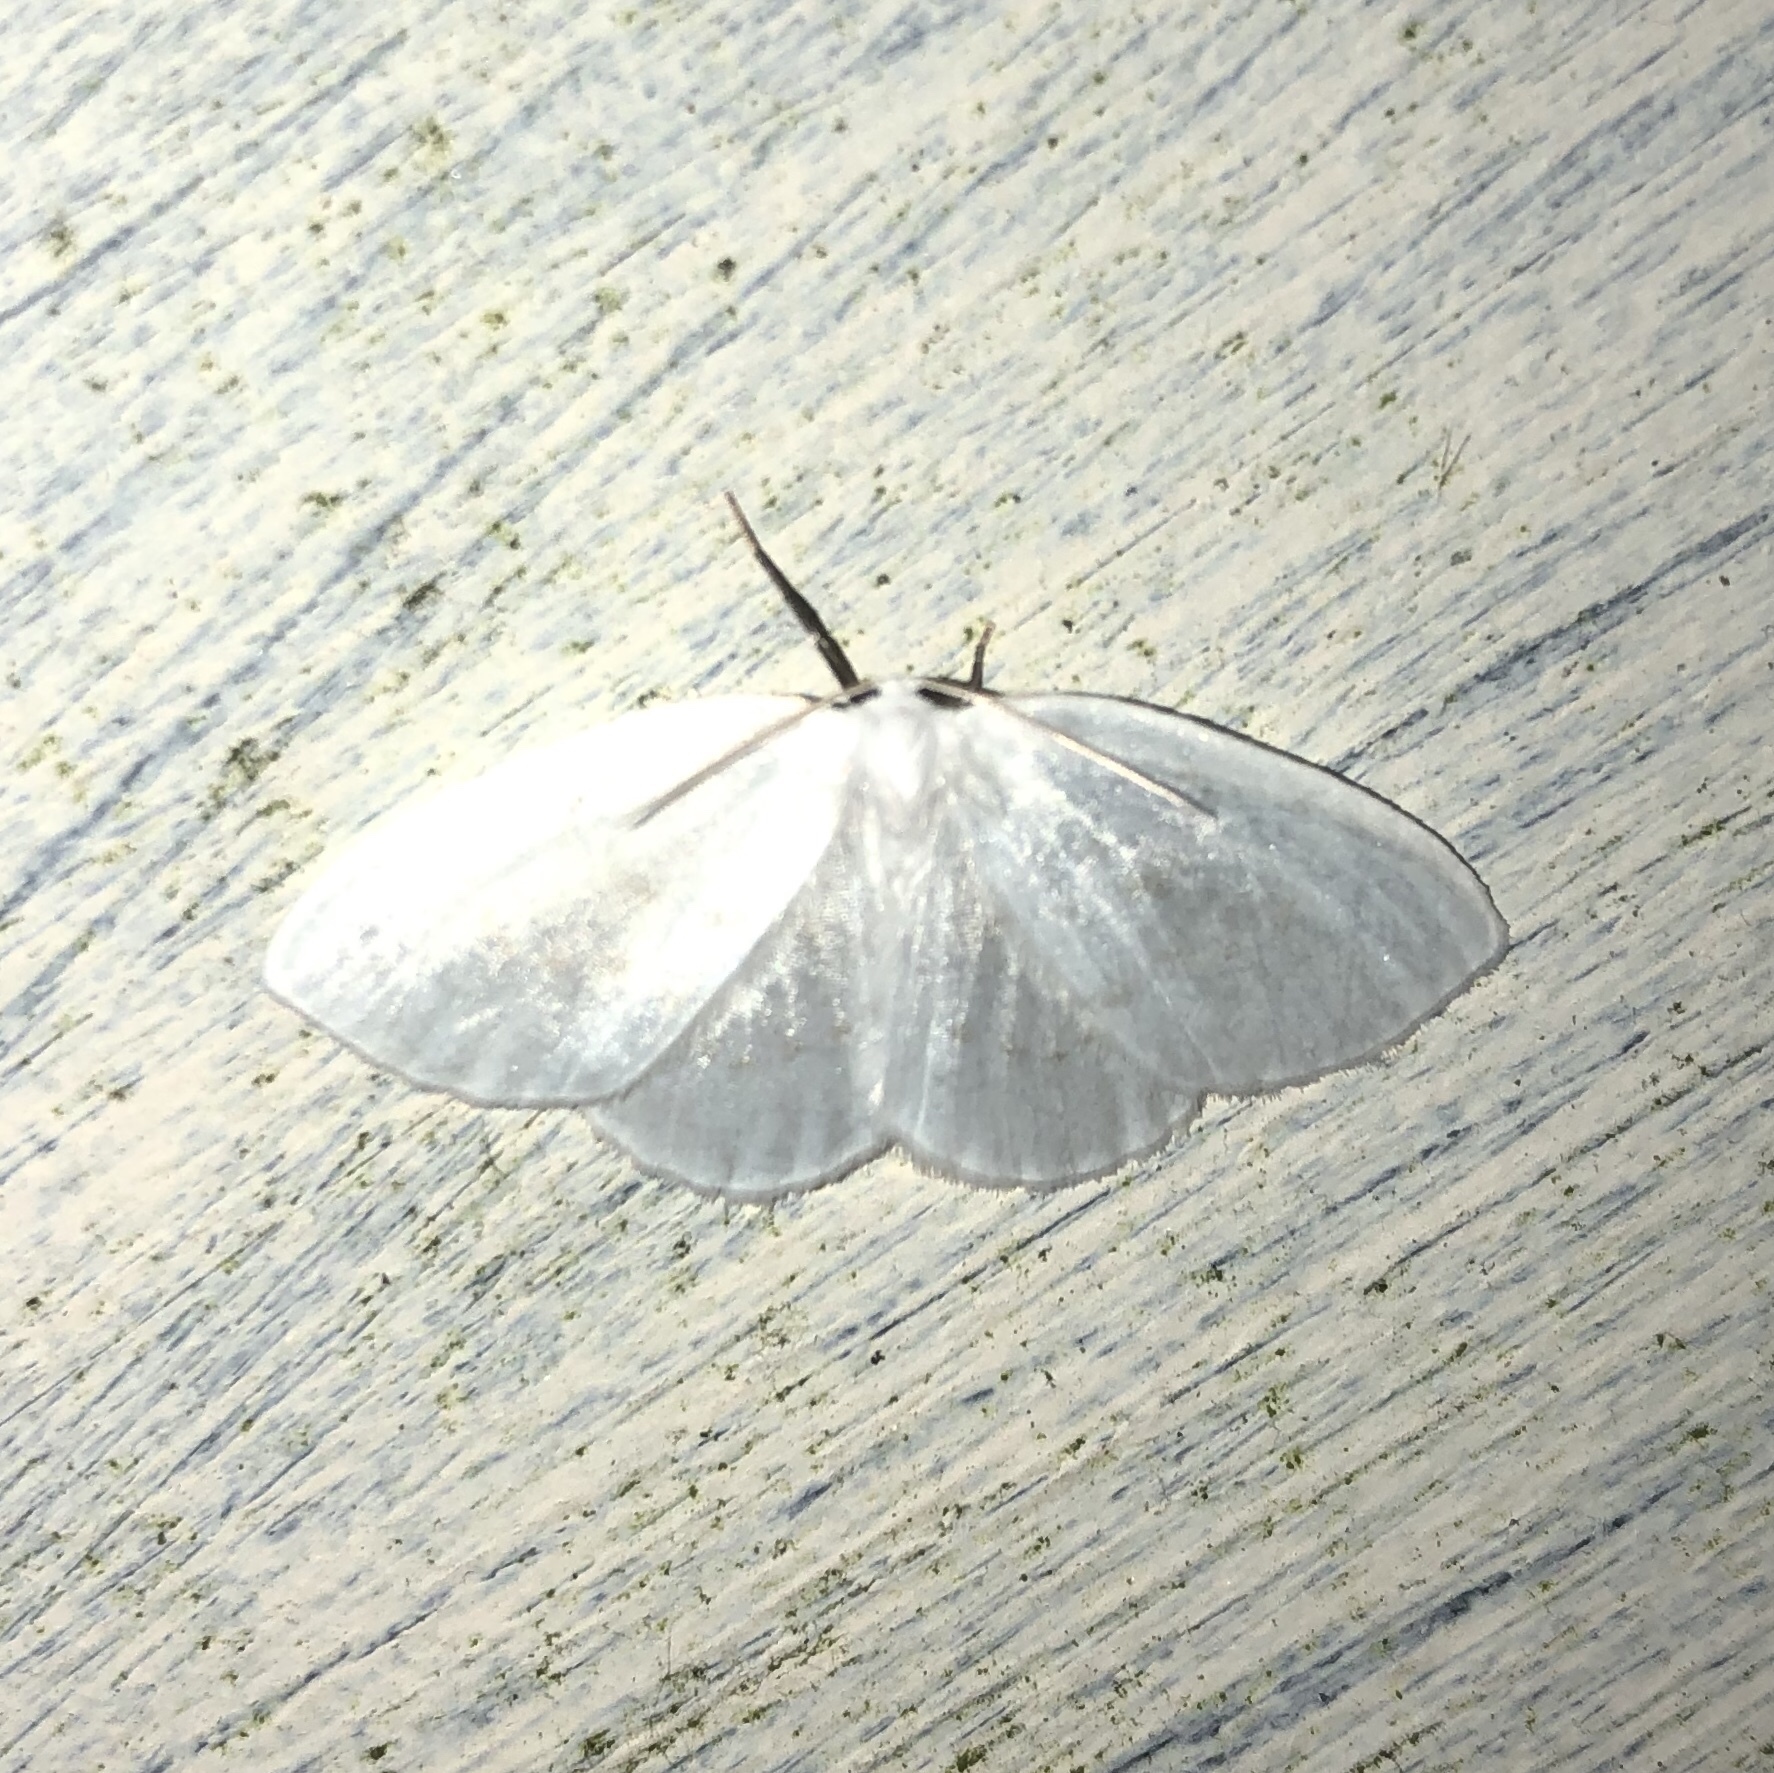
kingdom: Animalia
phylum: Arthropoda
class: Insecta
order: Lepidoptera
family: Drepanidae
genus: Eudeilinia
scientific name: Eudeilinia herminiata
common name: Northern eudeilinea moth
